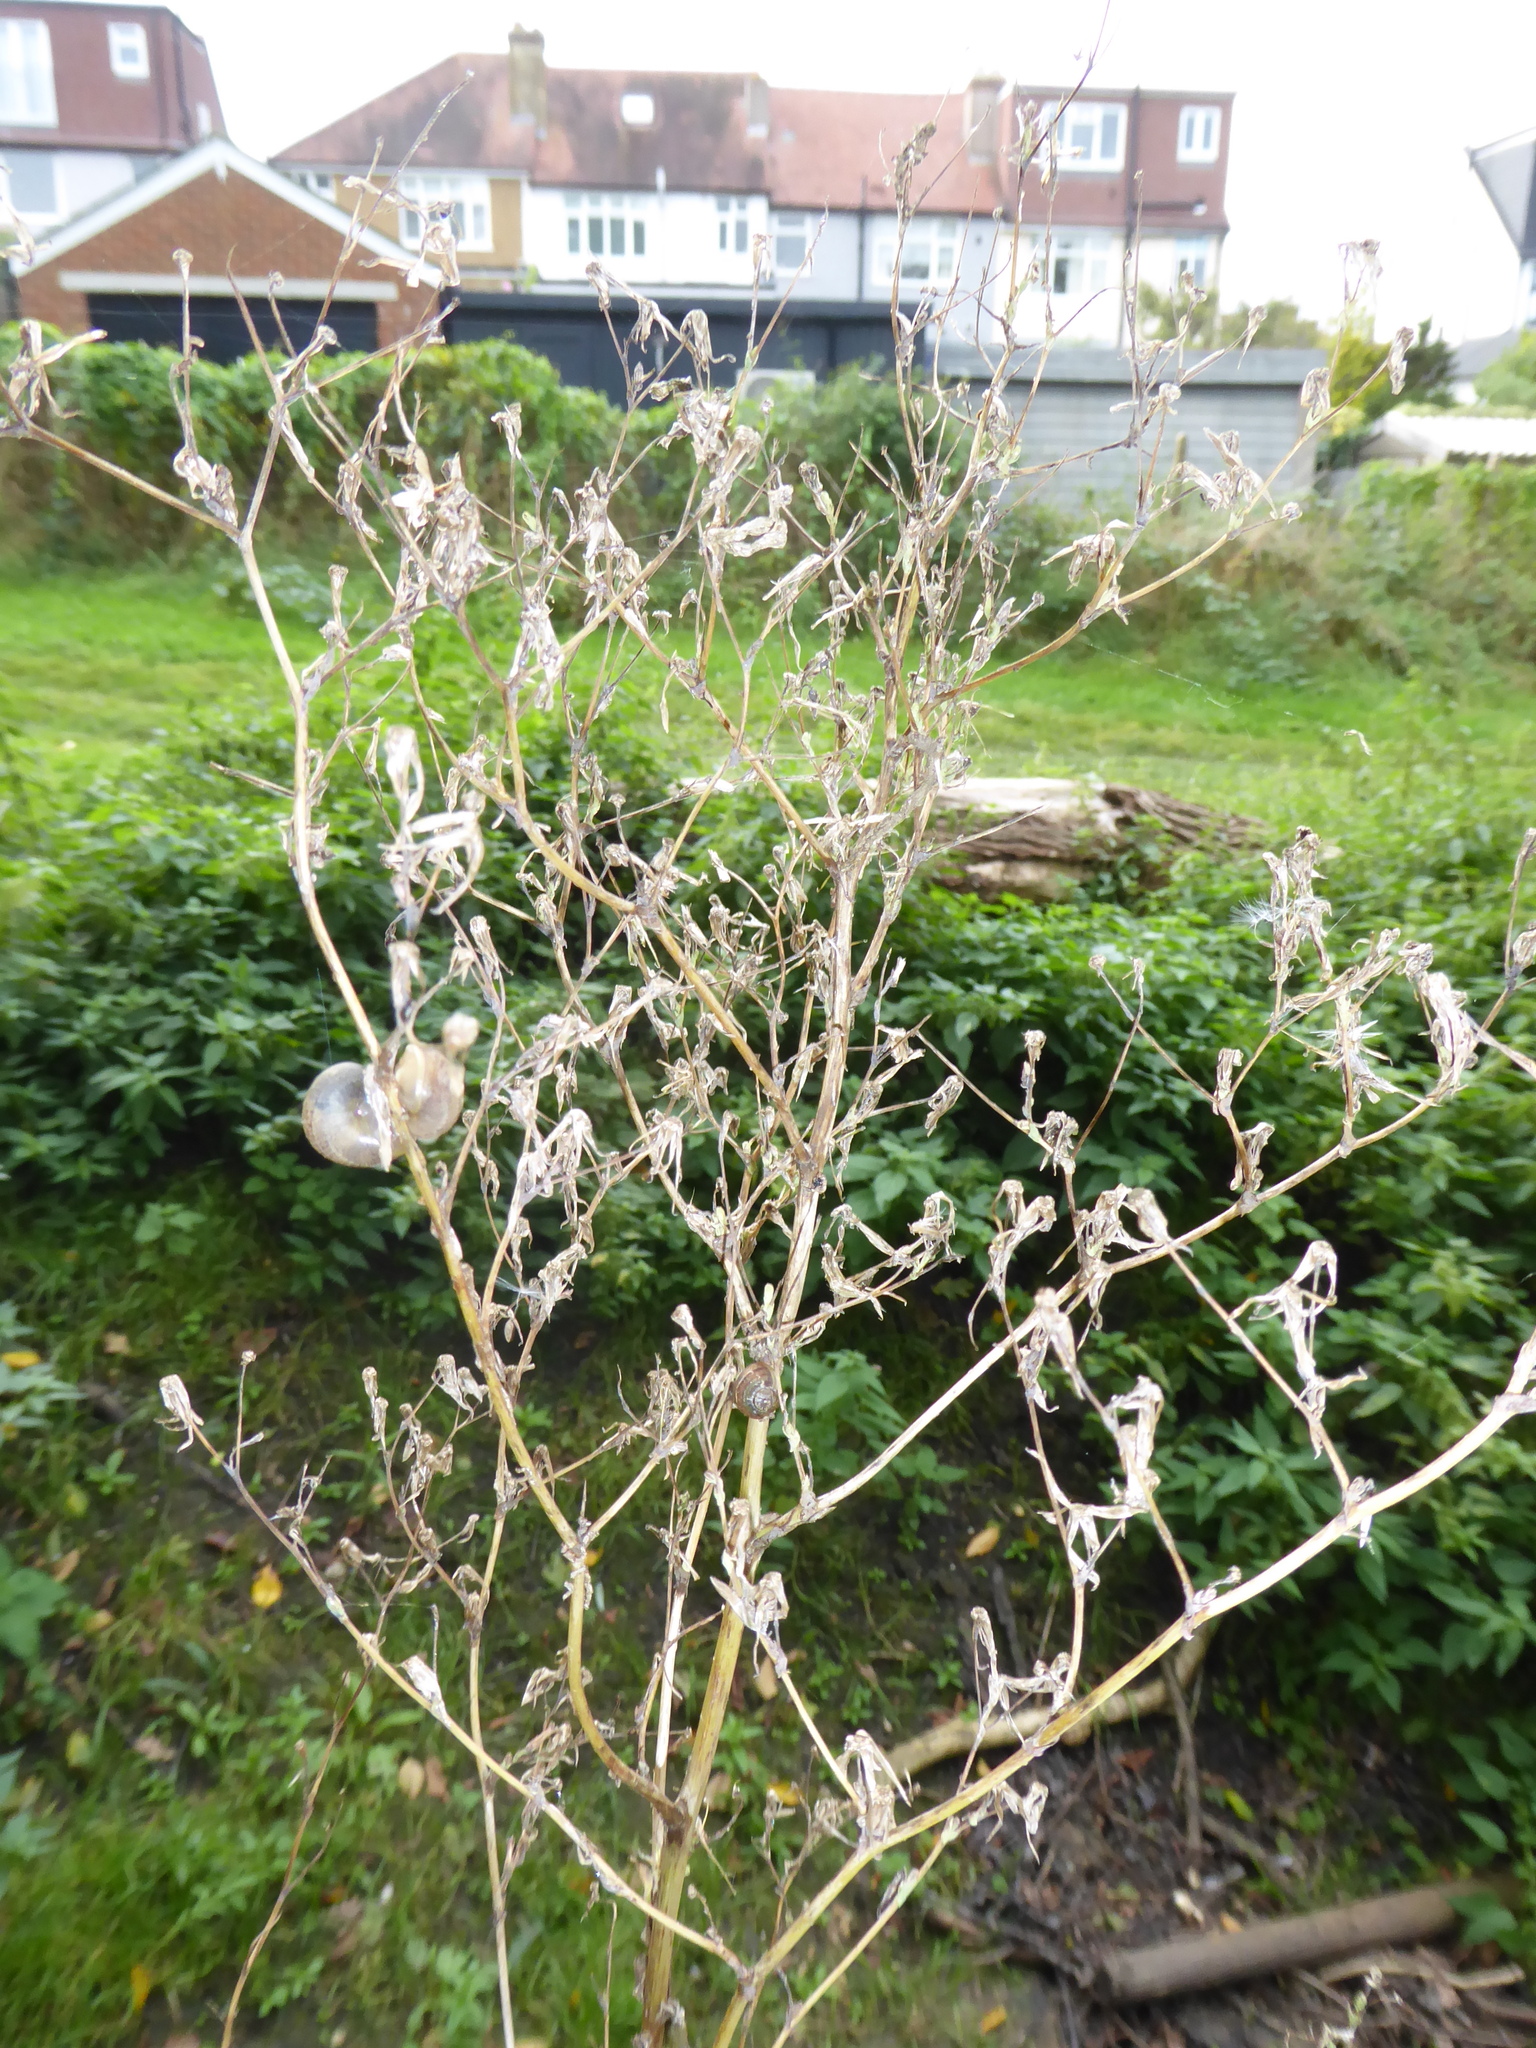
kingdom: Plantae
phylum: Tracheophyta
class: Magnoliopsida
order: Asterales
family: Asteraceae
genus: Lactuca
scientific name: Lactuca serriola
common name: Prickly lettuce
